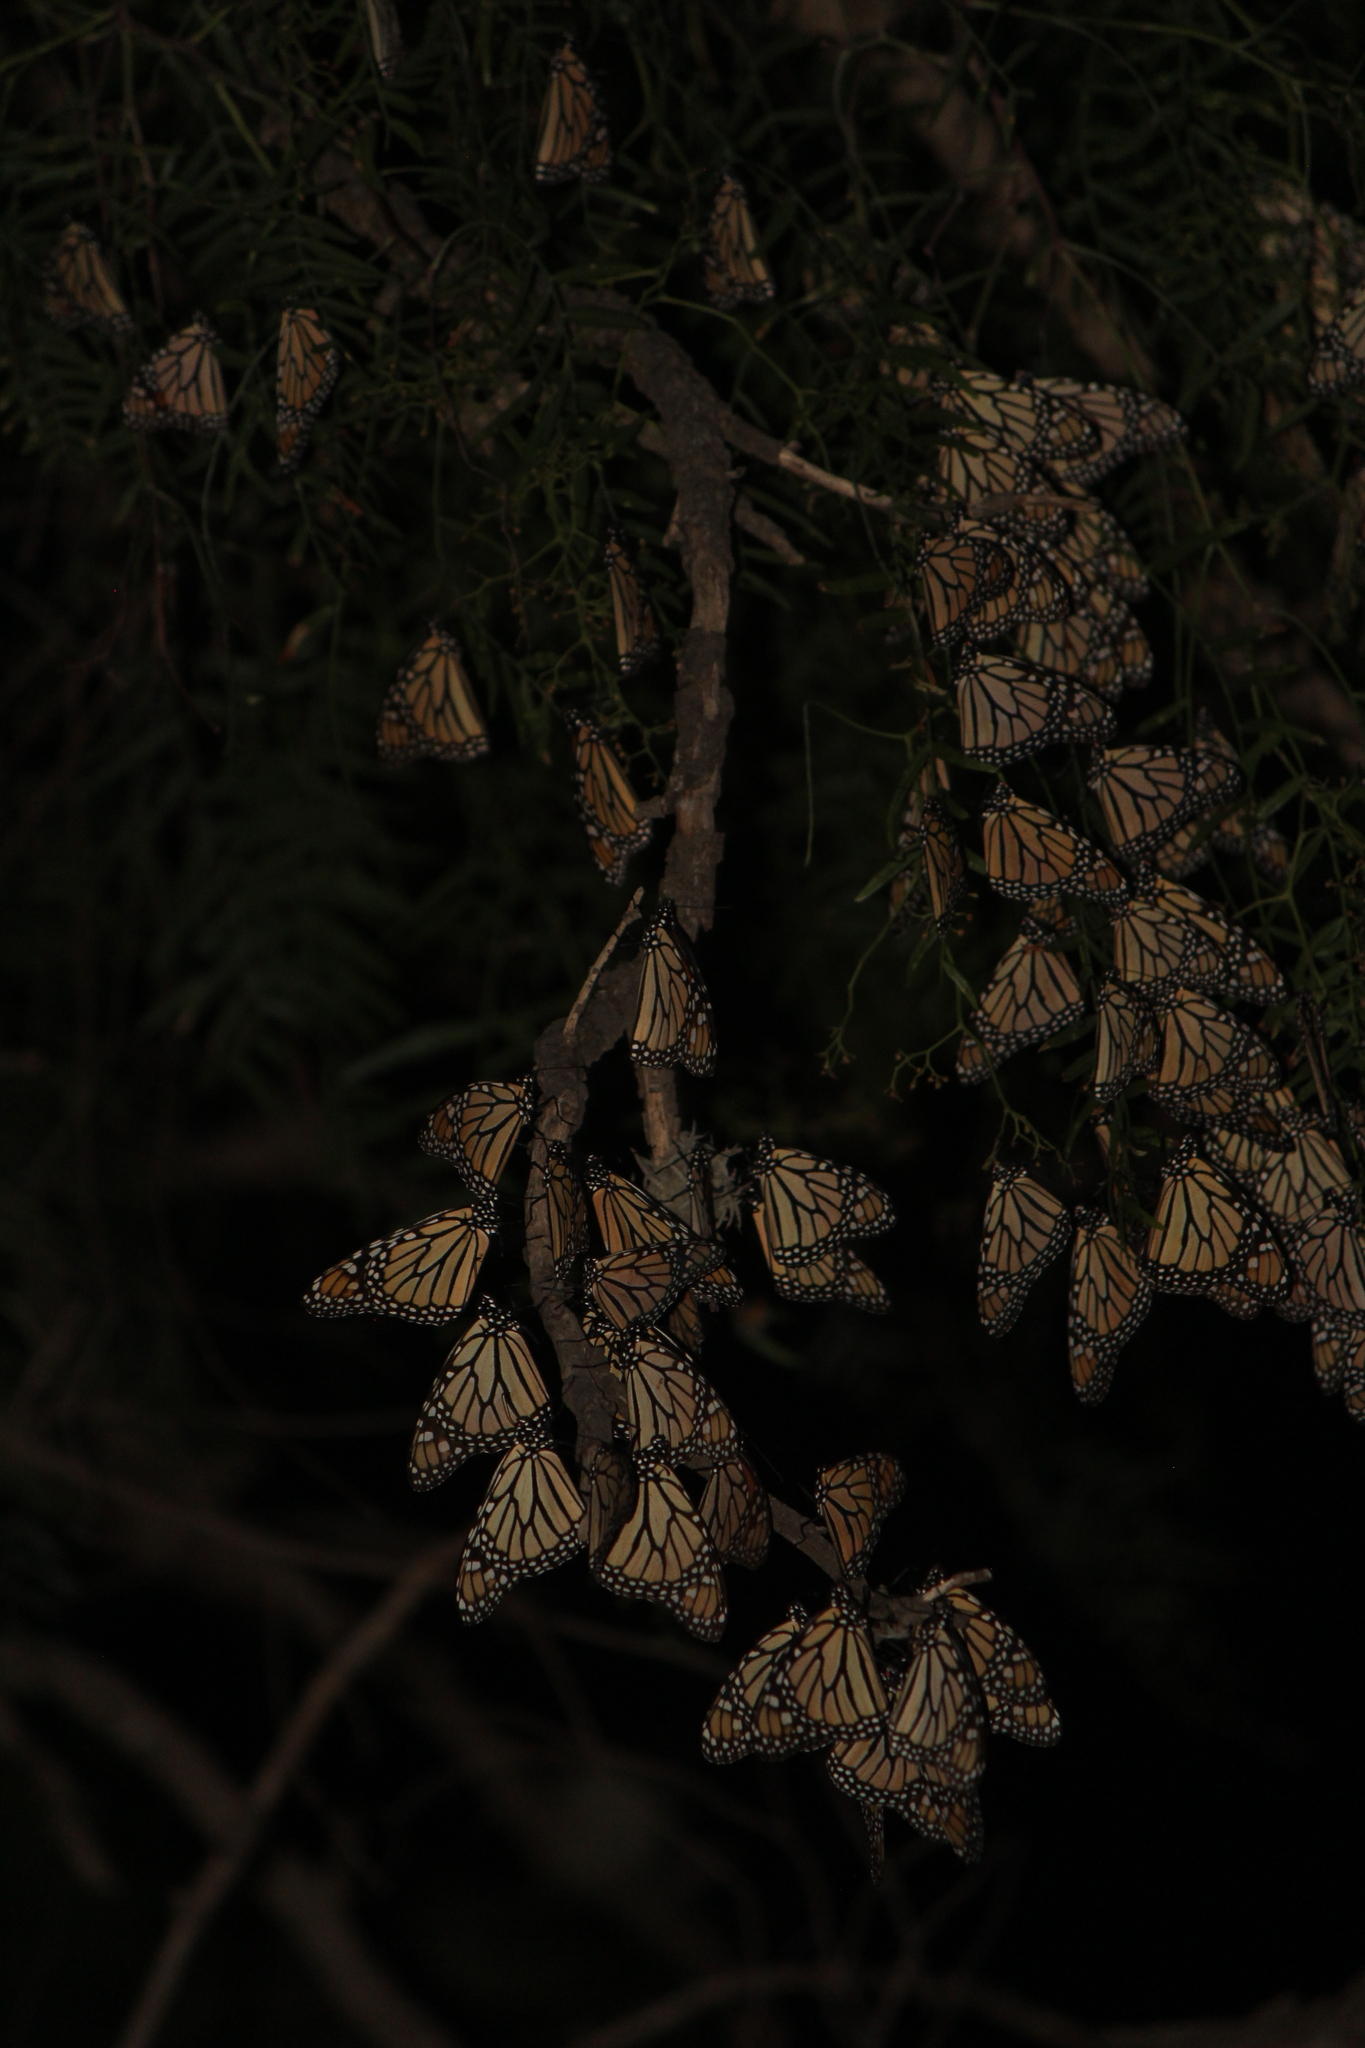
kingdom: Animalia
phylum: Arthropoda
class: Insecta
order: Lepidoptera
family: Nymphalidae
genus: Danaus
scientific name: Danaus plexippus
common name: Monarch
